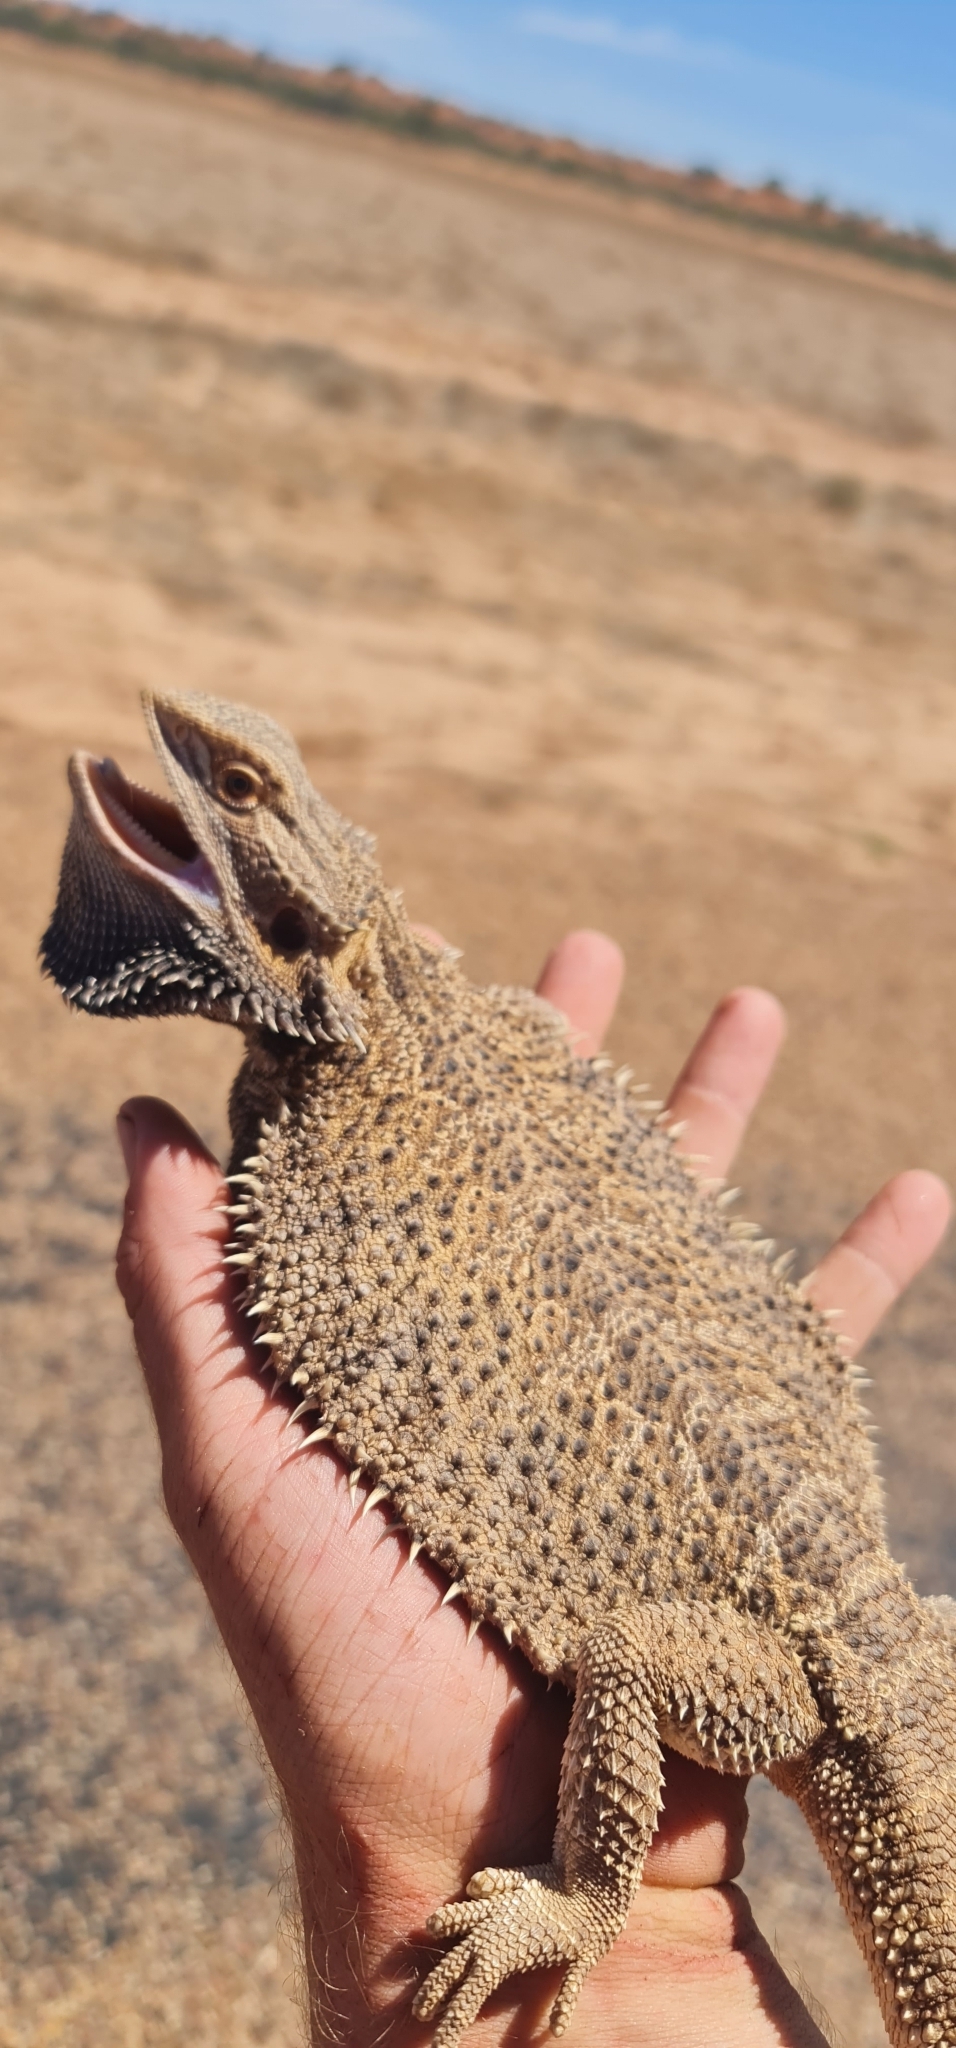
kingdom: Animalia
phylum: Chordata
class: Squamata
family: Agamidae
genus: Pogona
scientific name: Pogona vitticeps
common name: Central bearded dragon
